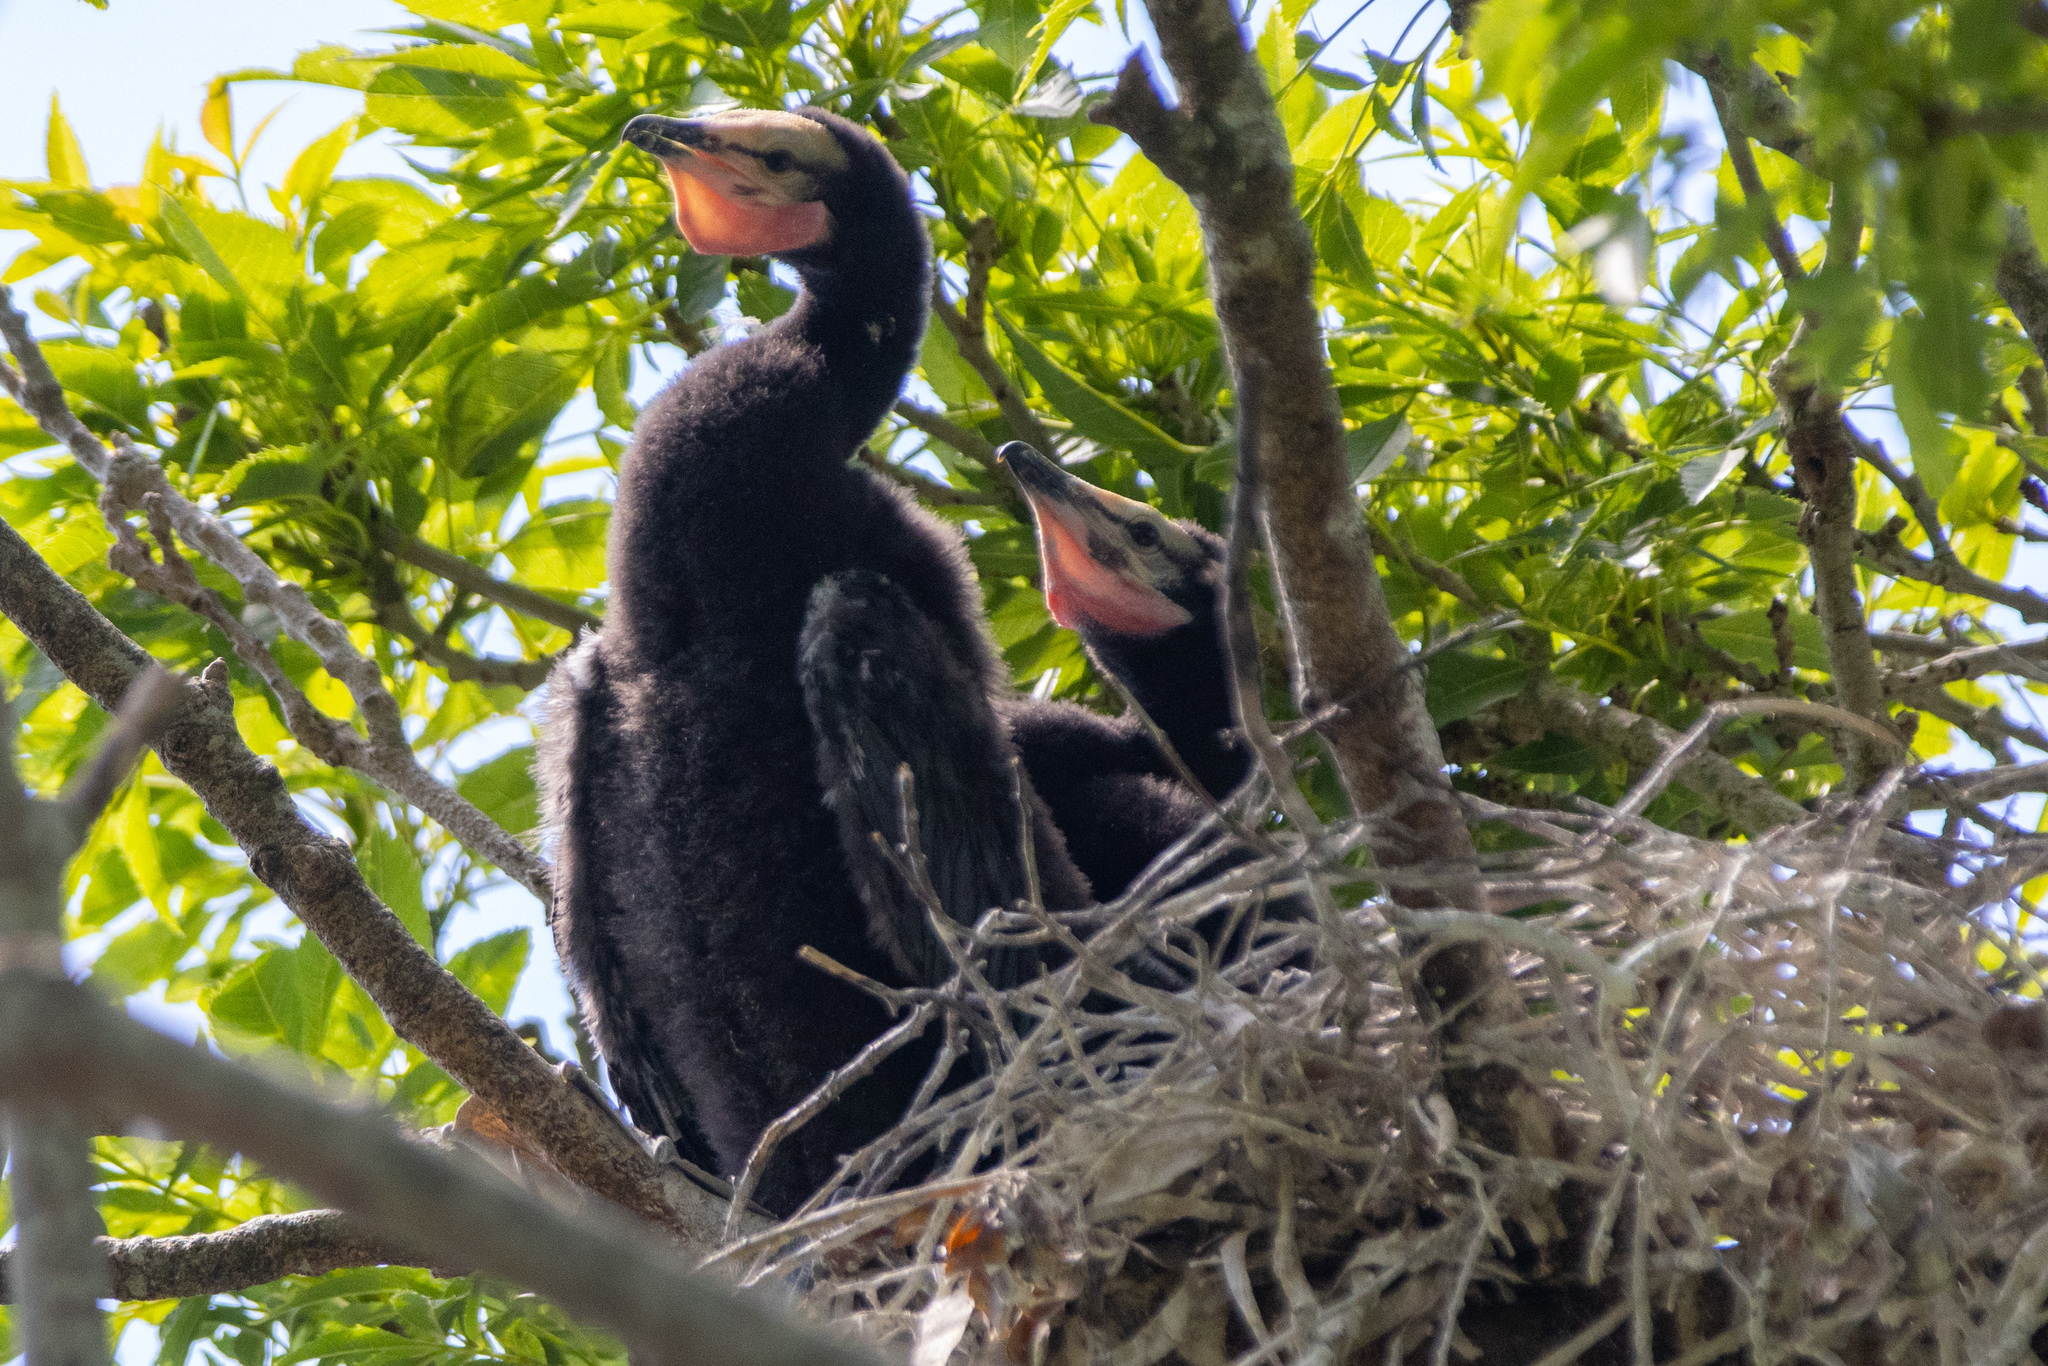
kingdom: Animalia
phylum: Chordata
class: Aves
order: Suliformes
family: Phalacrocoracidae
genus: Microcarbo
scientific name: Microcarbo melanoleucos
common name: Little pied cormorant
